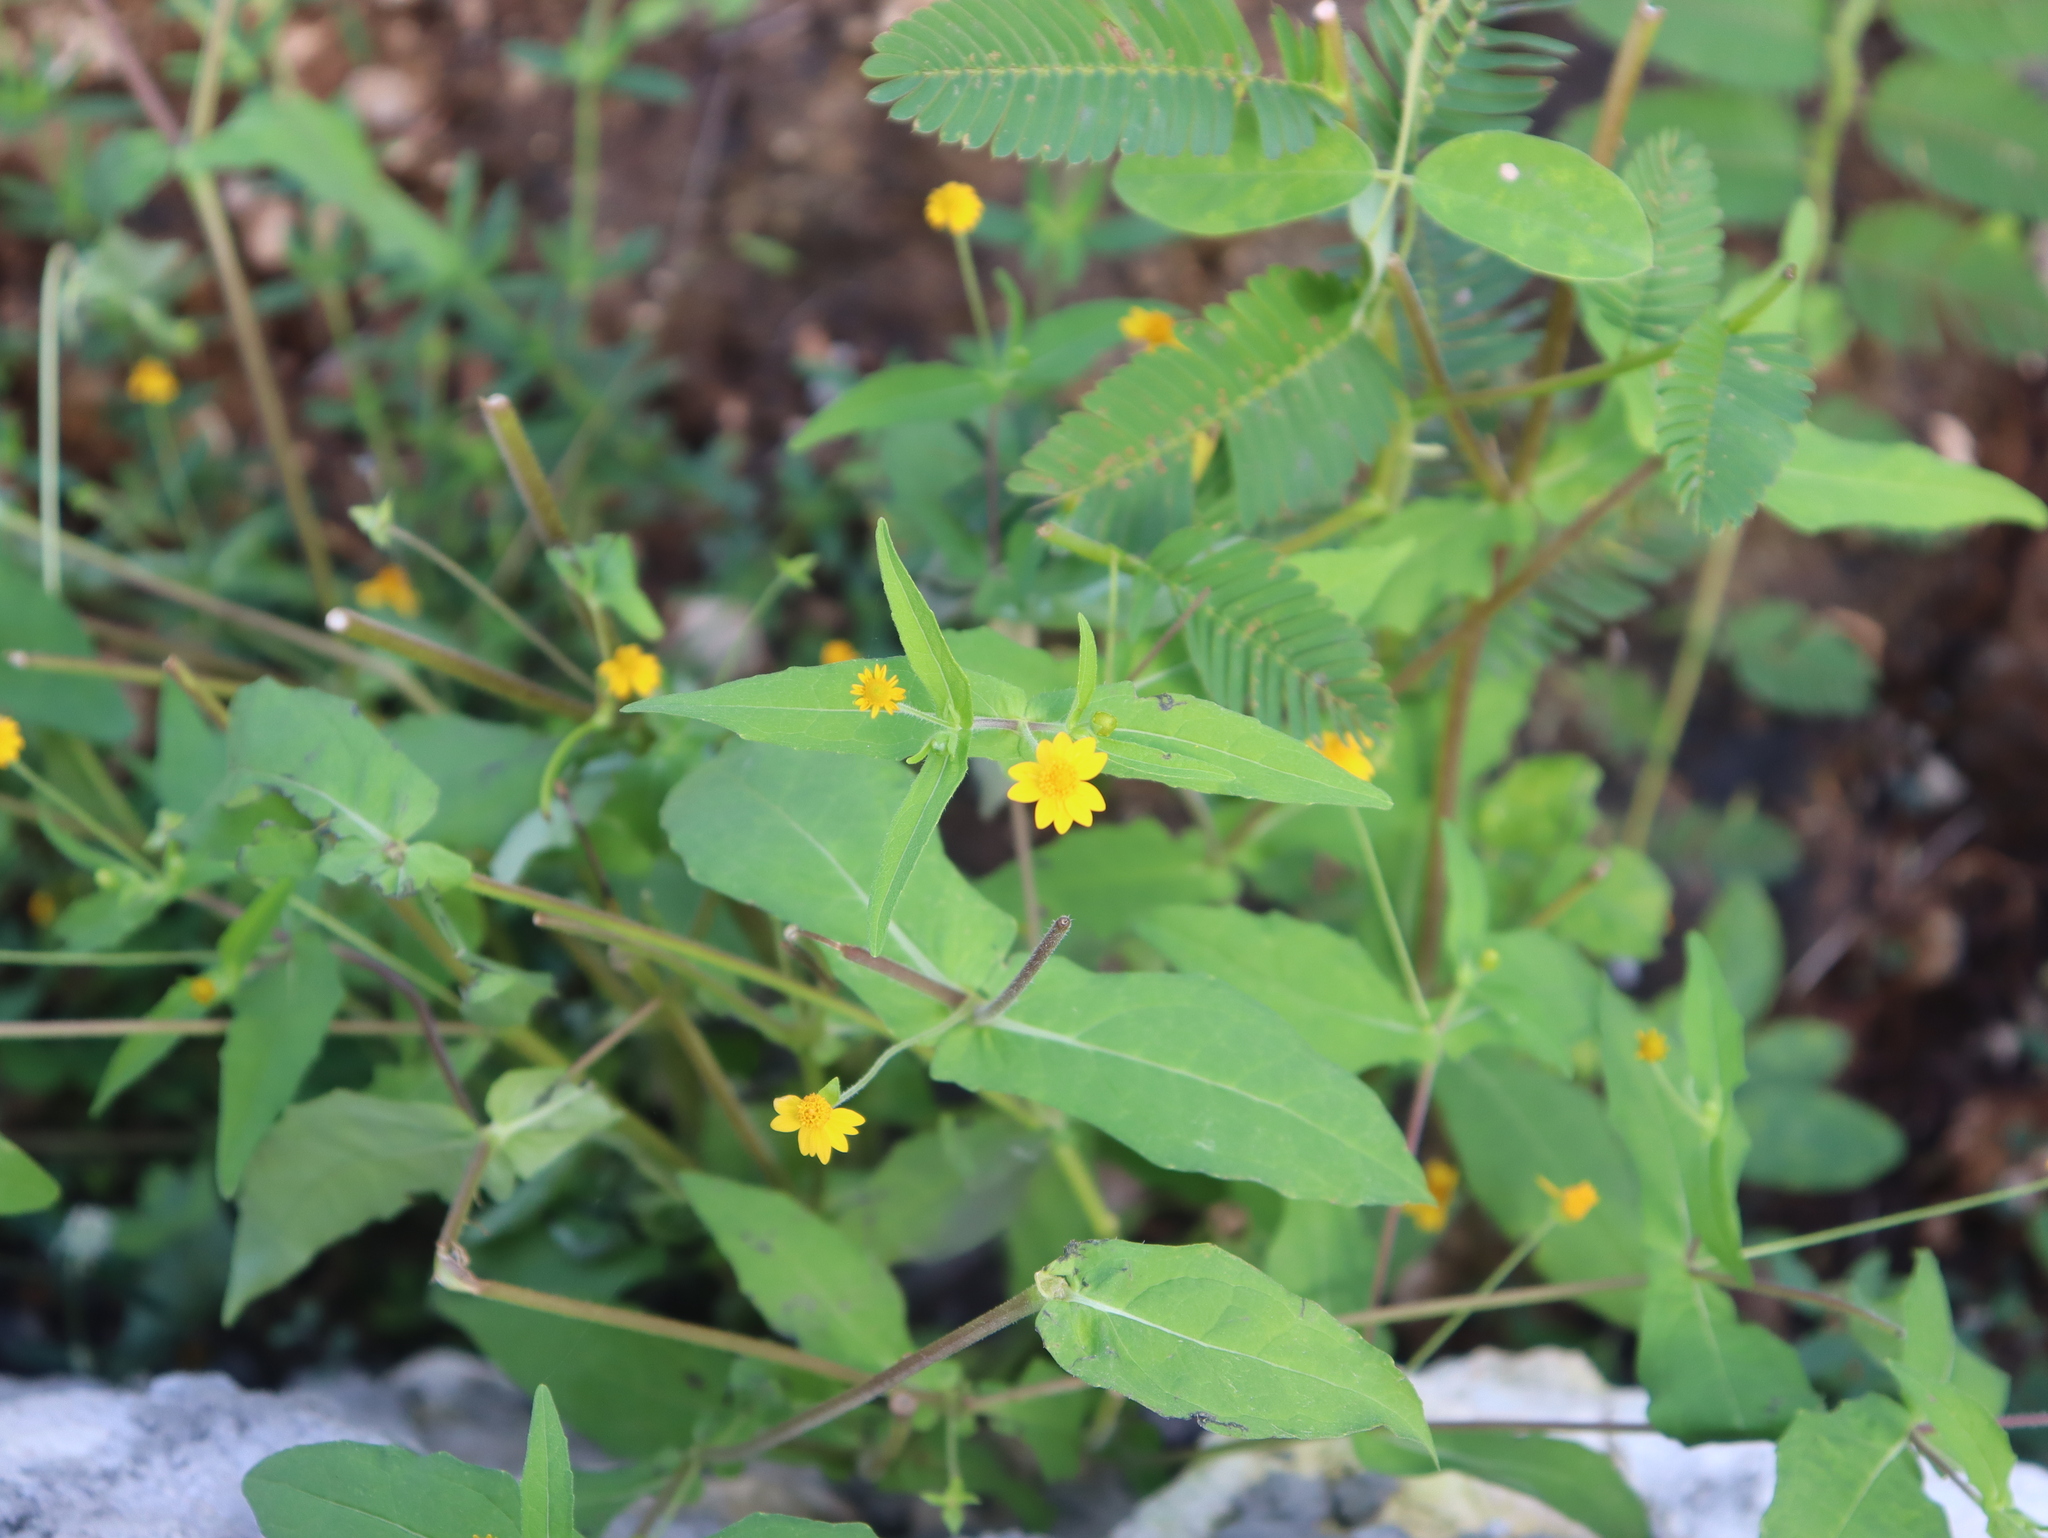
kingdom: Plantae
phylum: Tracheophyta
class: Magnoliopsida
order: Asterales
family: Asteraceae
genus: Melampodium
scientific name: Melampodium gracile
